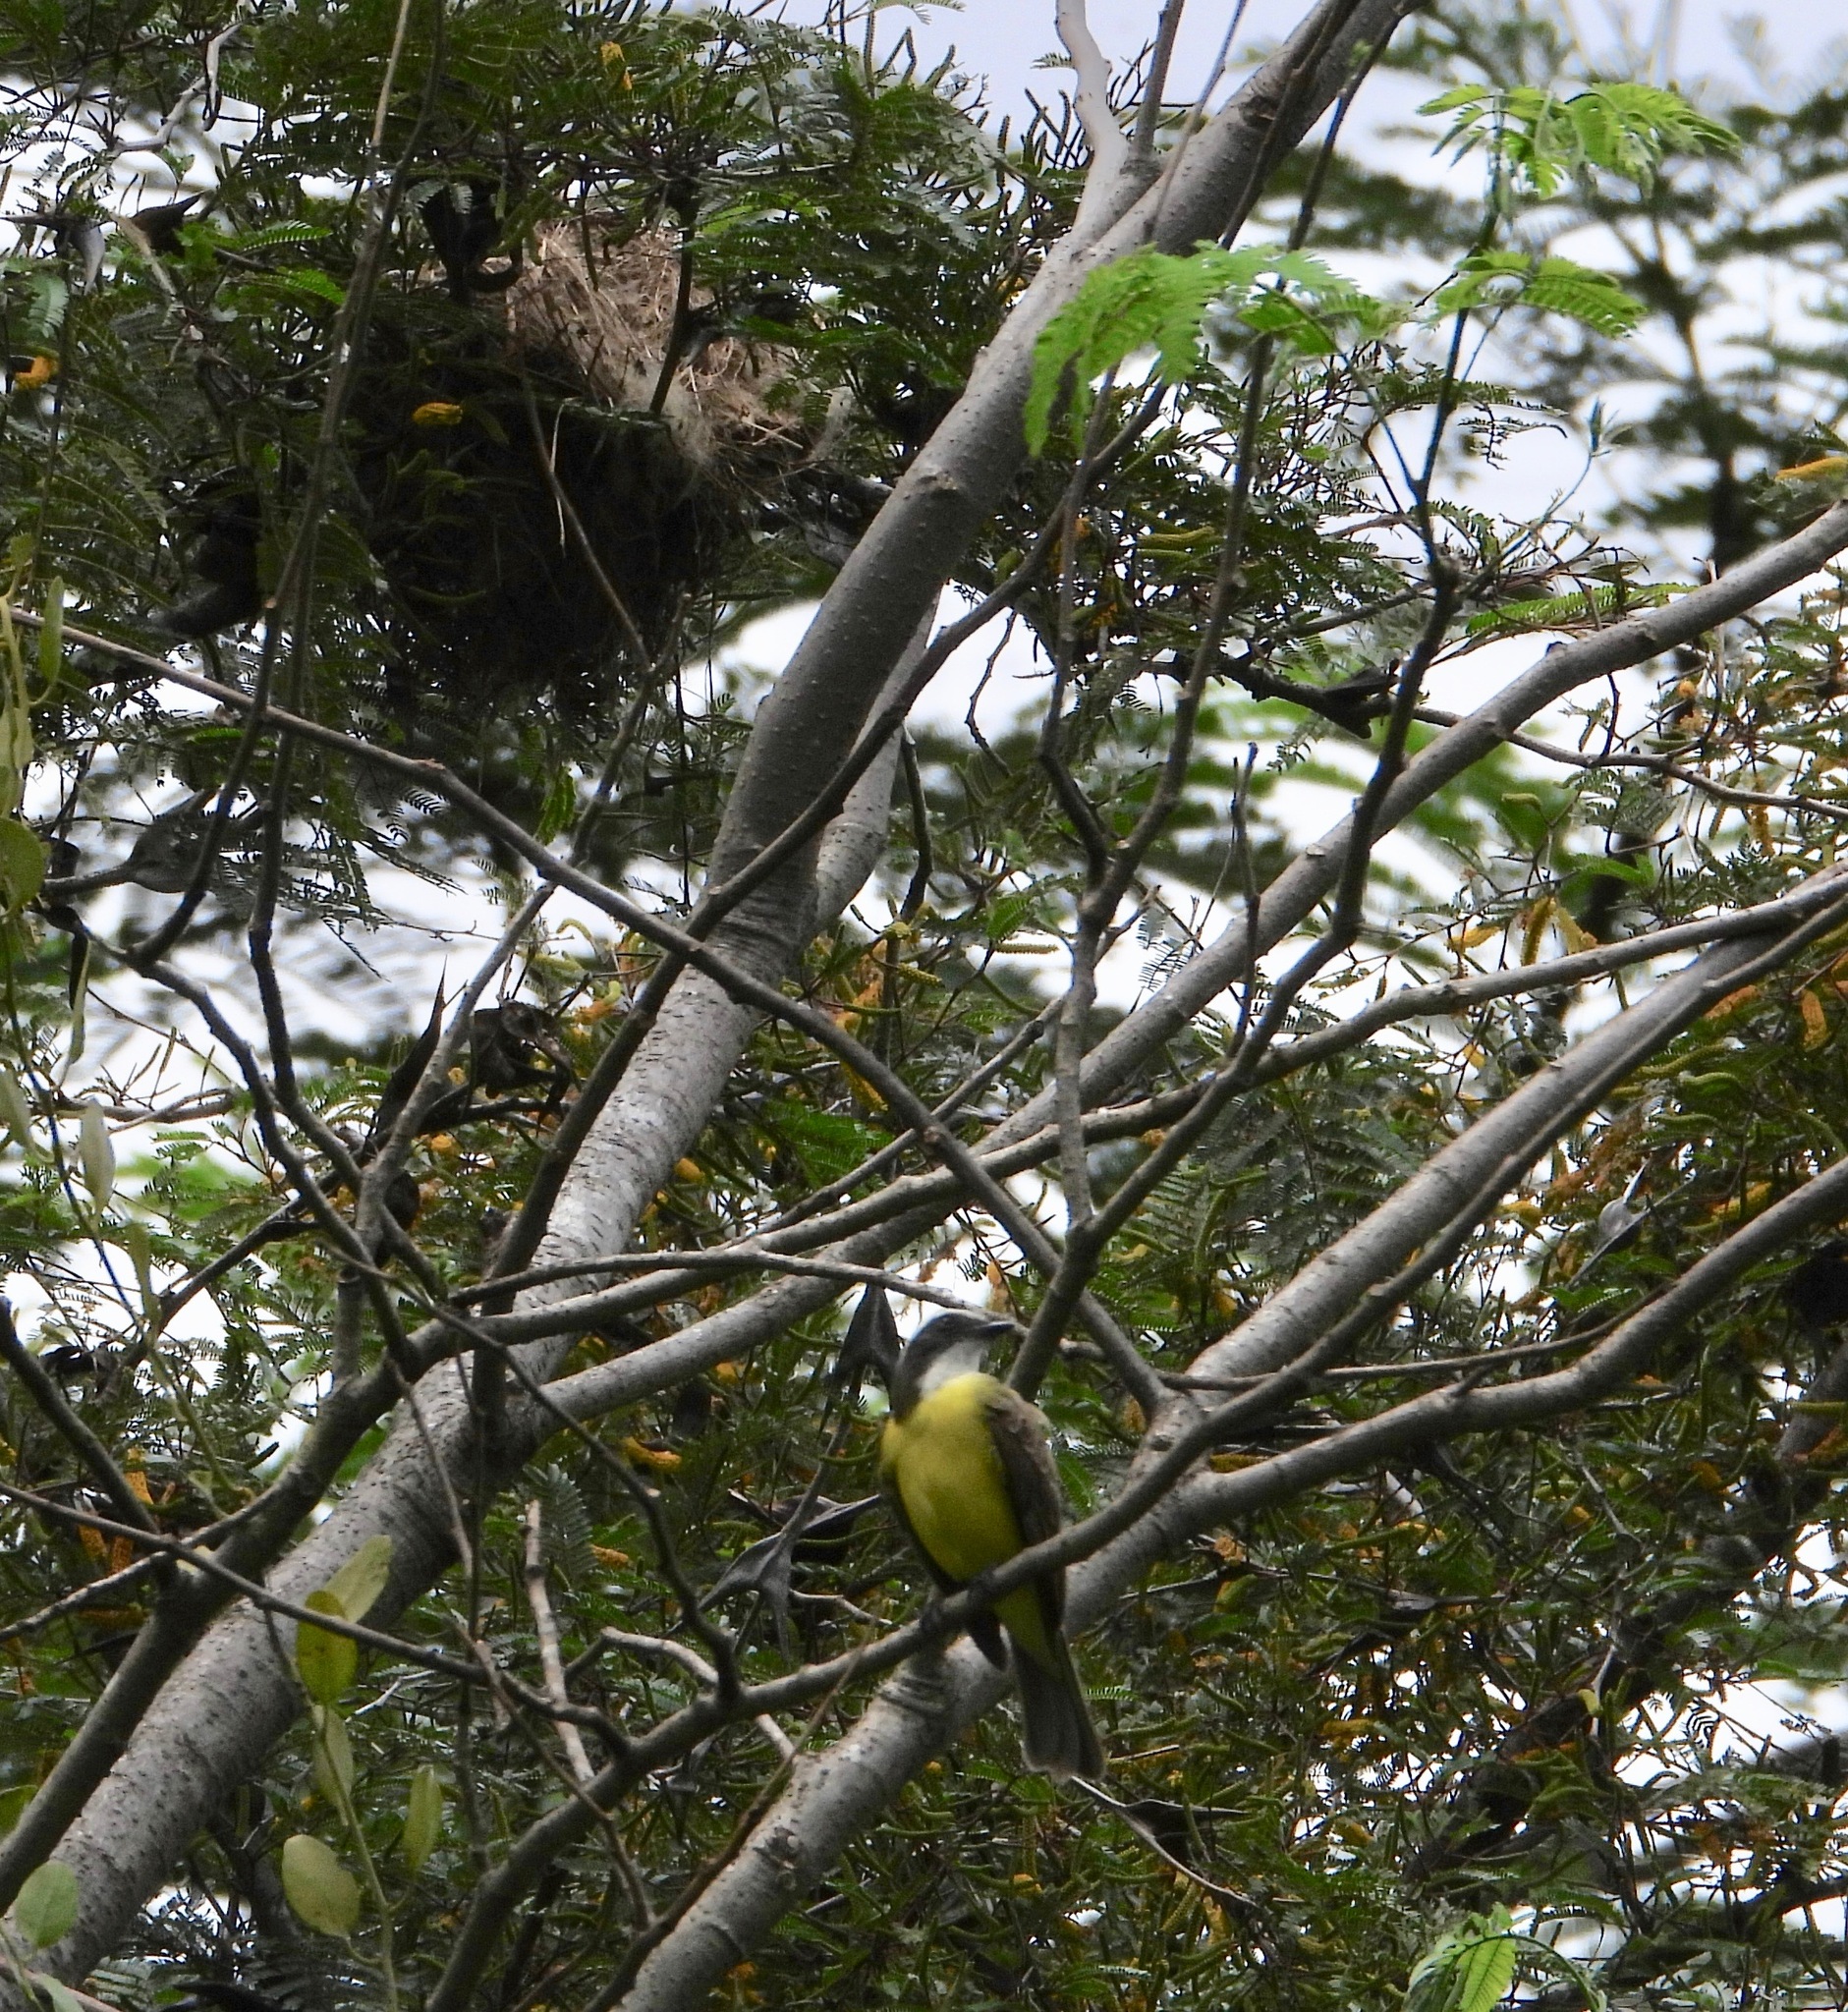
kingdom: Animalia
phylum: Chordata
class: Aves
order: Passeriformes
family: Tyrannidae
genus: Myiozetetes
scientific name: Myiozetetes similis
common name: Social flycatcher
